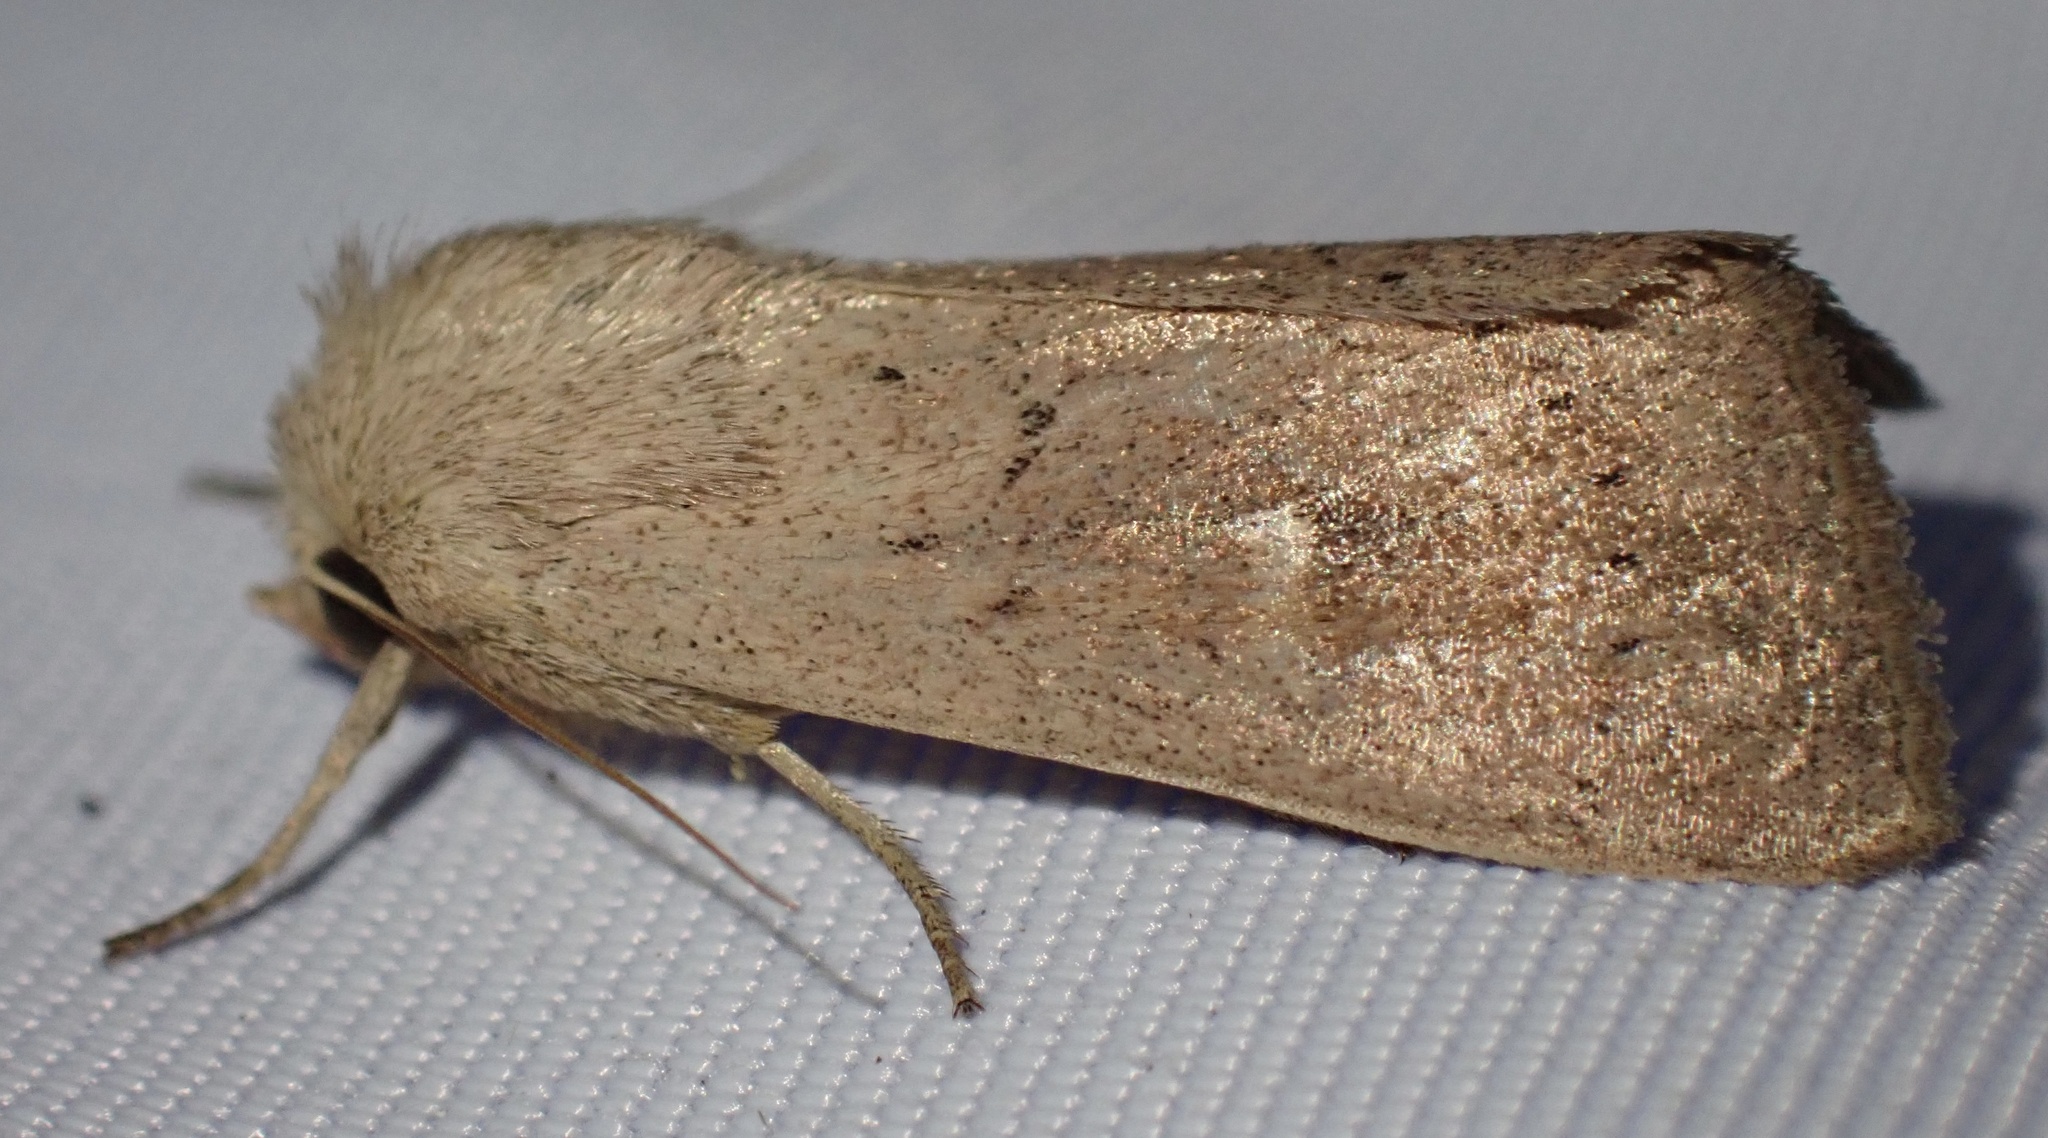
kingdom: Animalia
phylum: Arthropoda
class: Insecta
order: Lepidoptera
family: Noctuidae
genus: Mythimna
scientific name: Mythimna ferrago
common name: Clay
